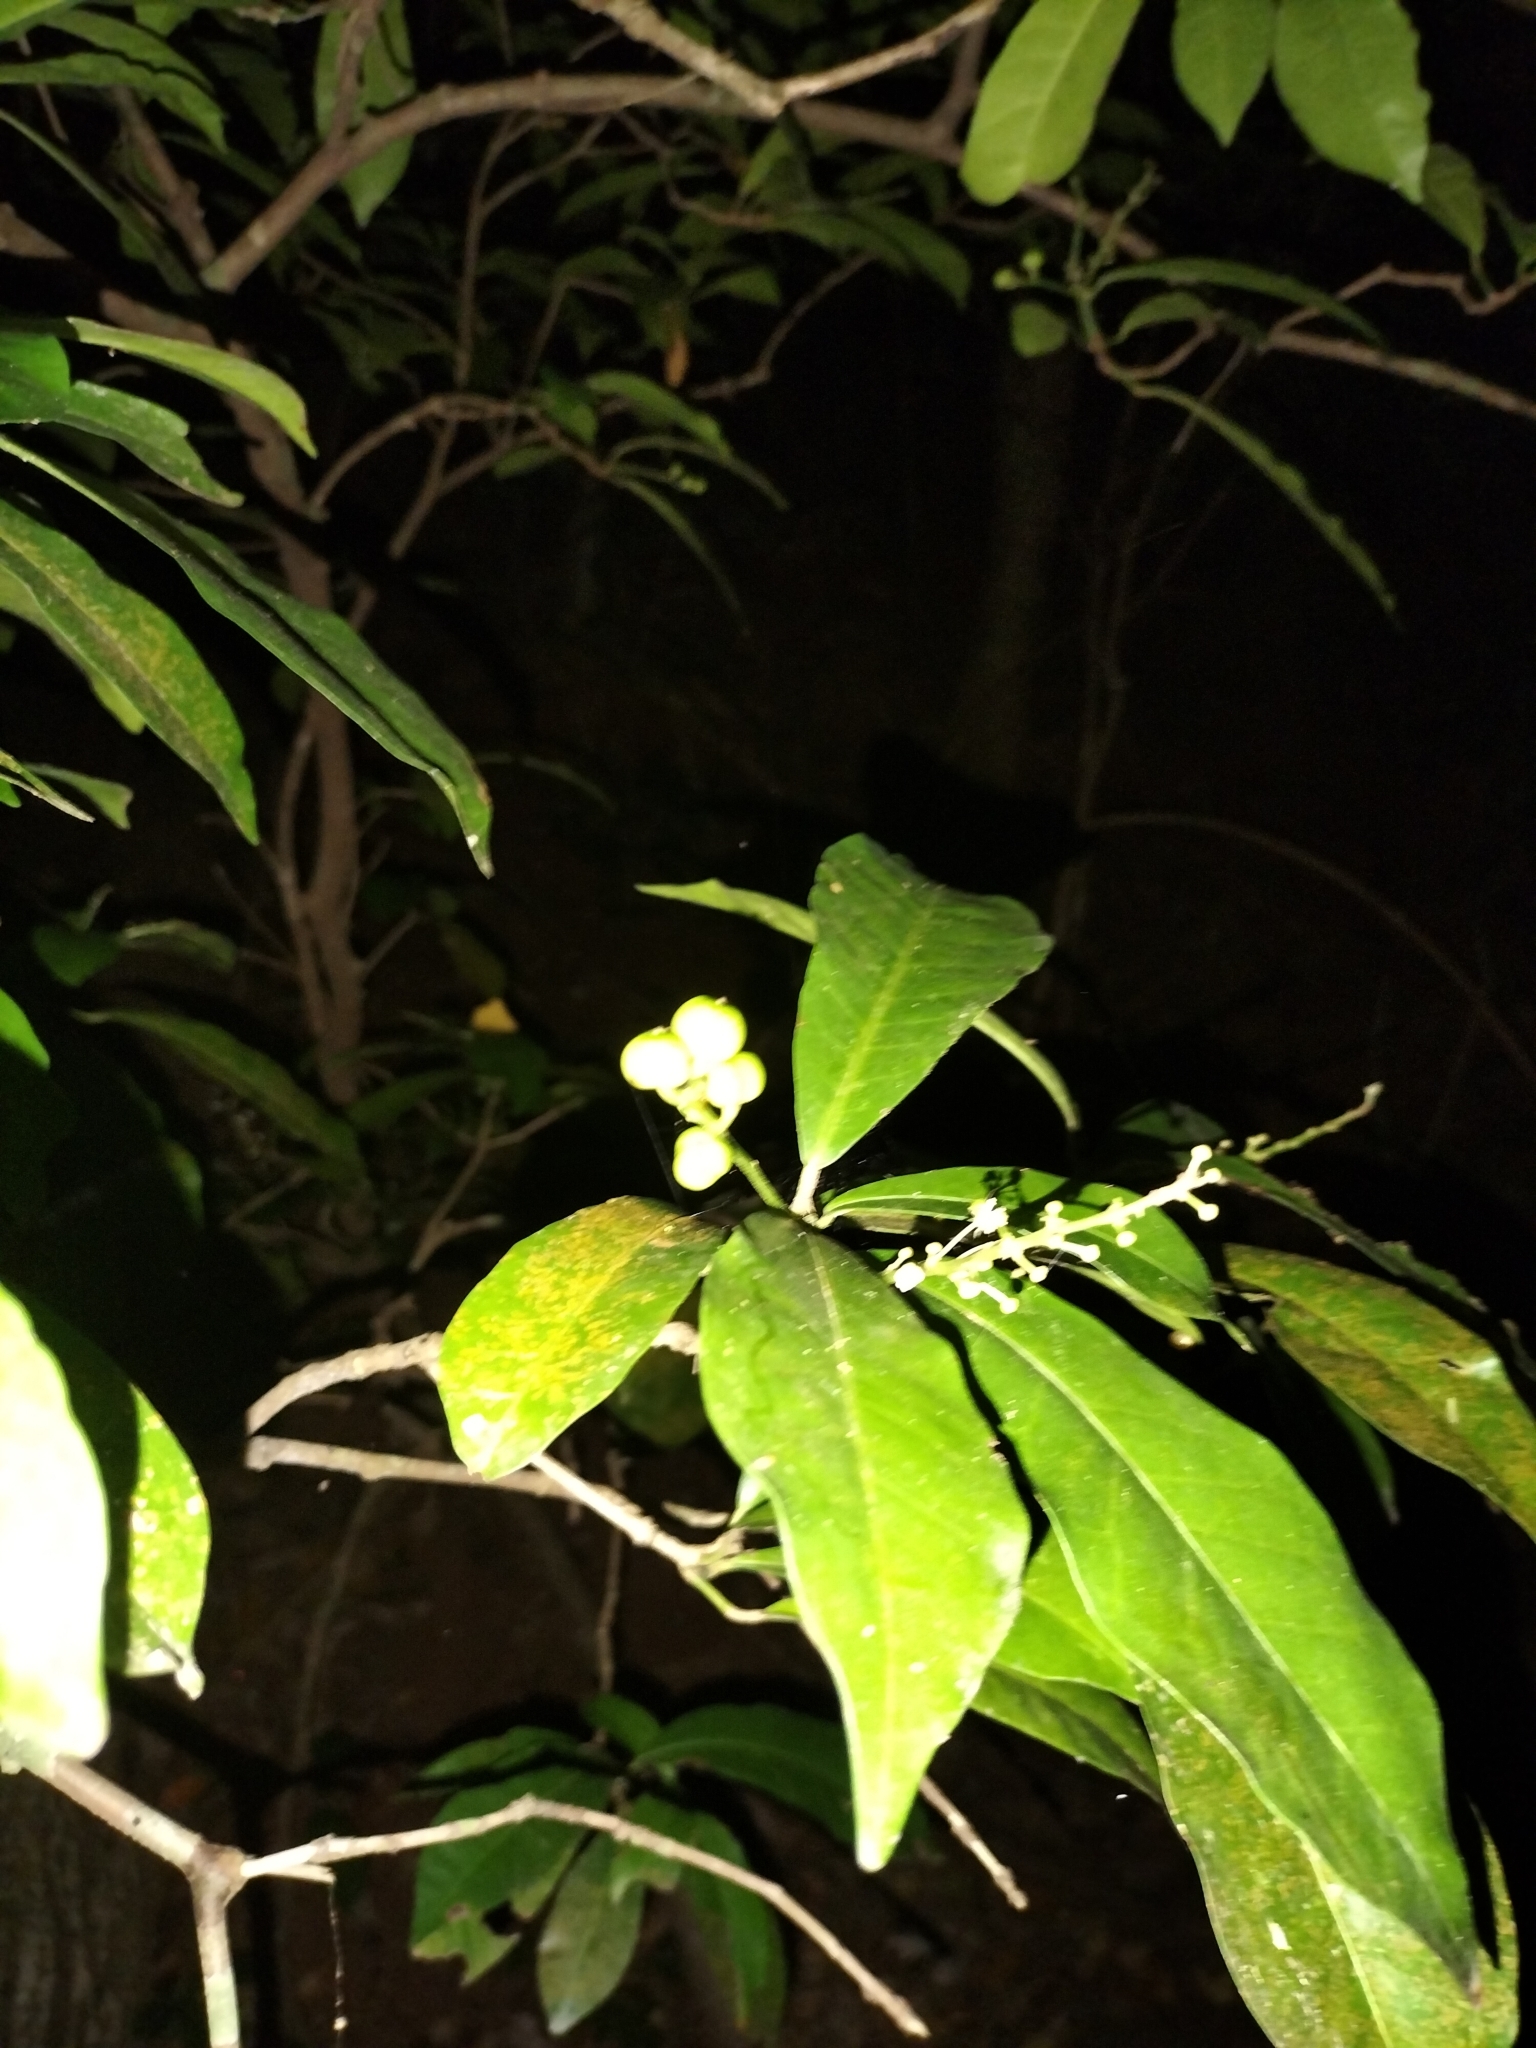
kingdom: Plantae
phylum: Tracheophyta
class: Magnoliopsida
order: Malpighiales
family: Euphorbiaceae
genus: Codiaeum
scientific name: Codiaeum variegatum
